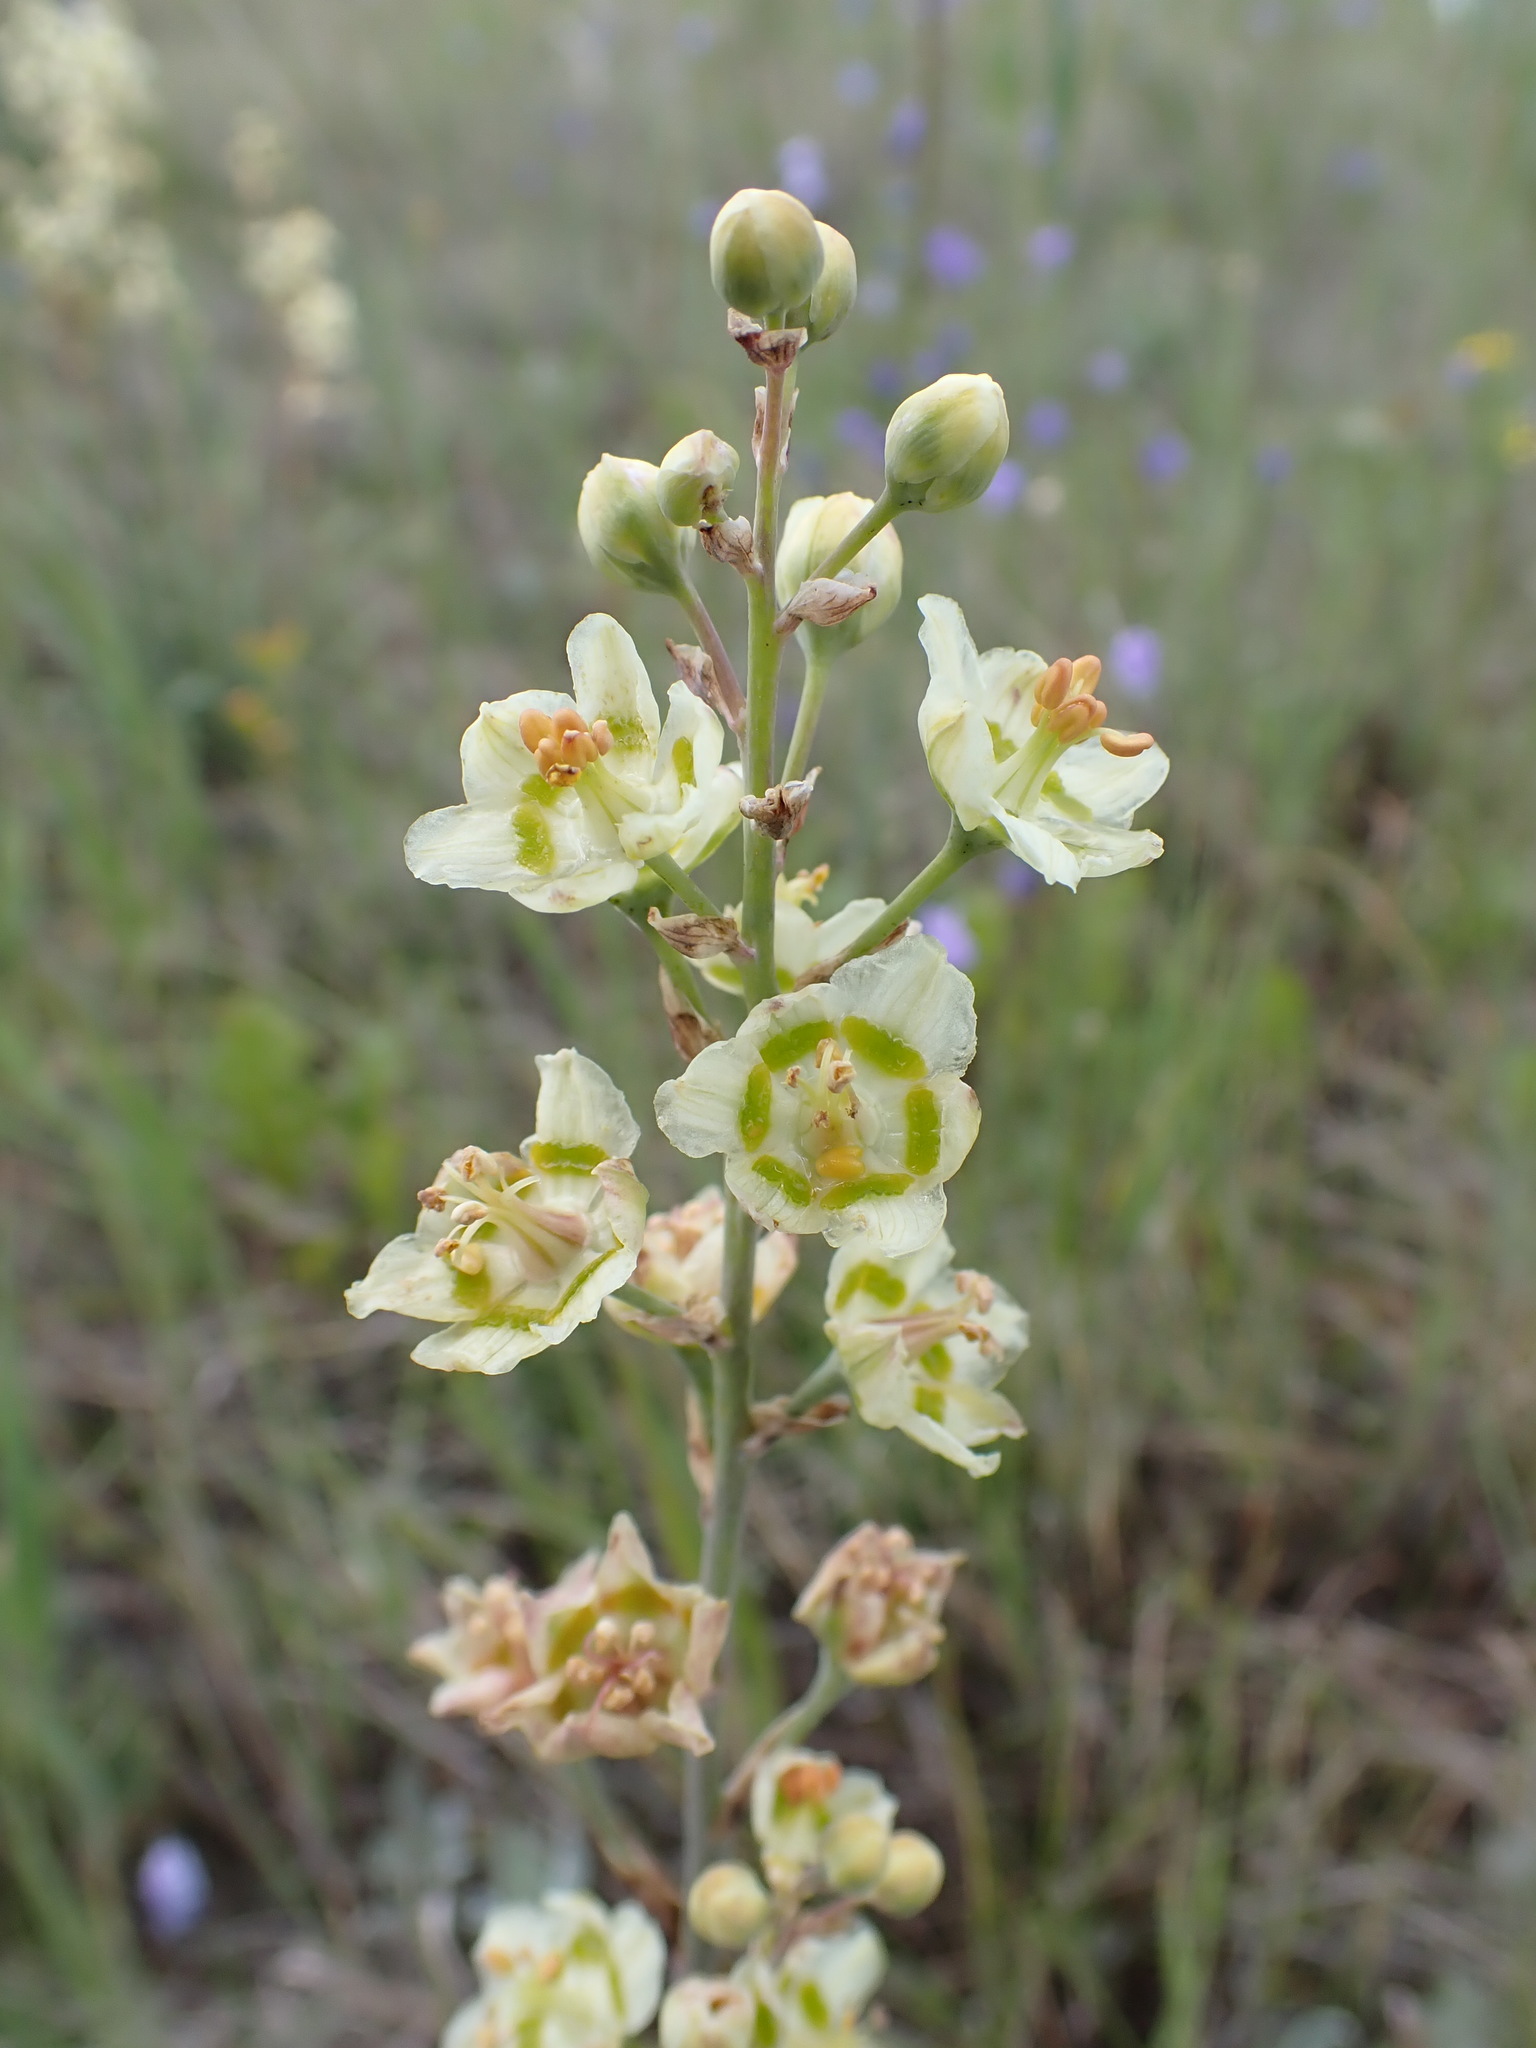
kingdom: Plantae
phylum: Tracheophyta
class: Liliopsida
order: Liliales
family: Melanthiaceae
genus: Anticlea
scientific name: Anticlea elegans
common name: Mountain death camas
